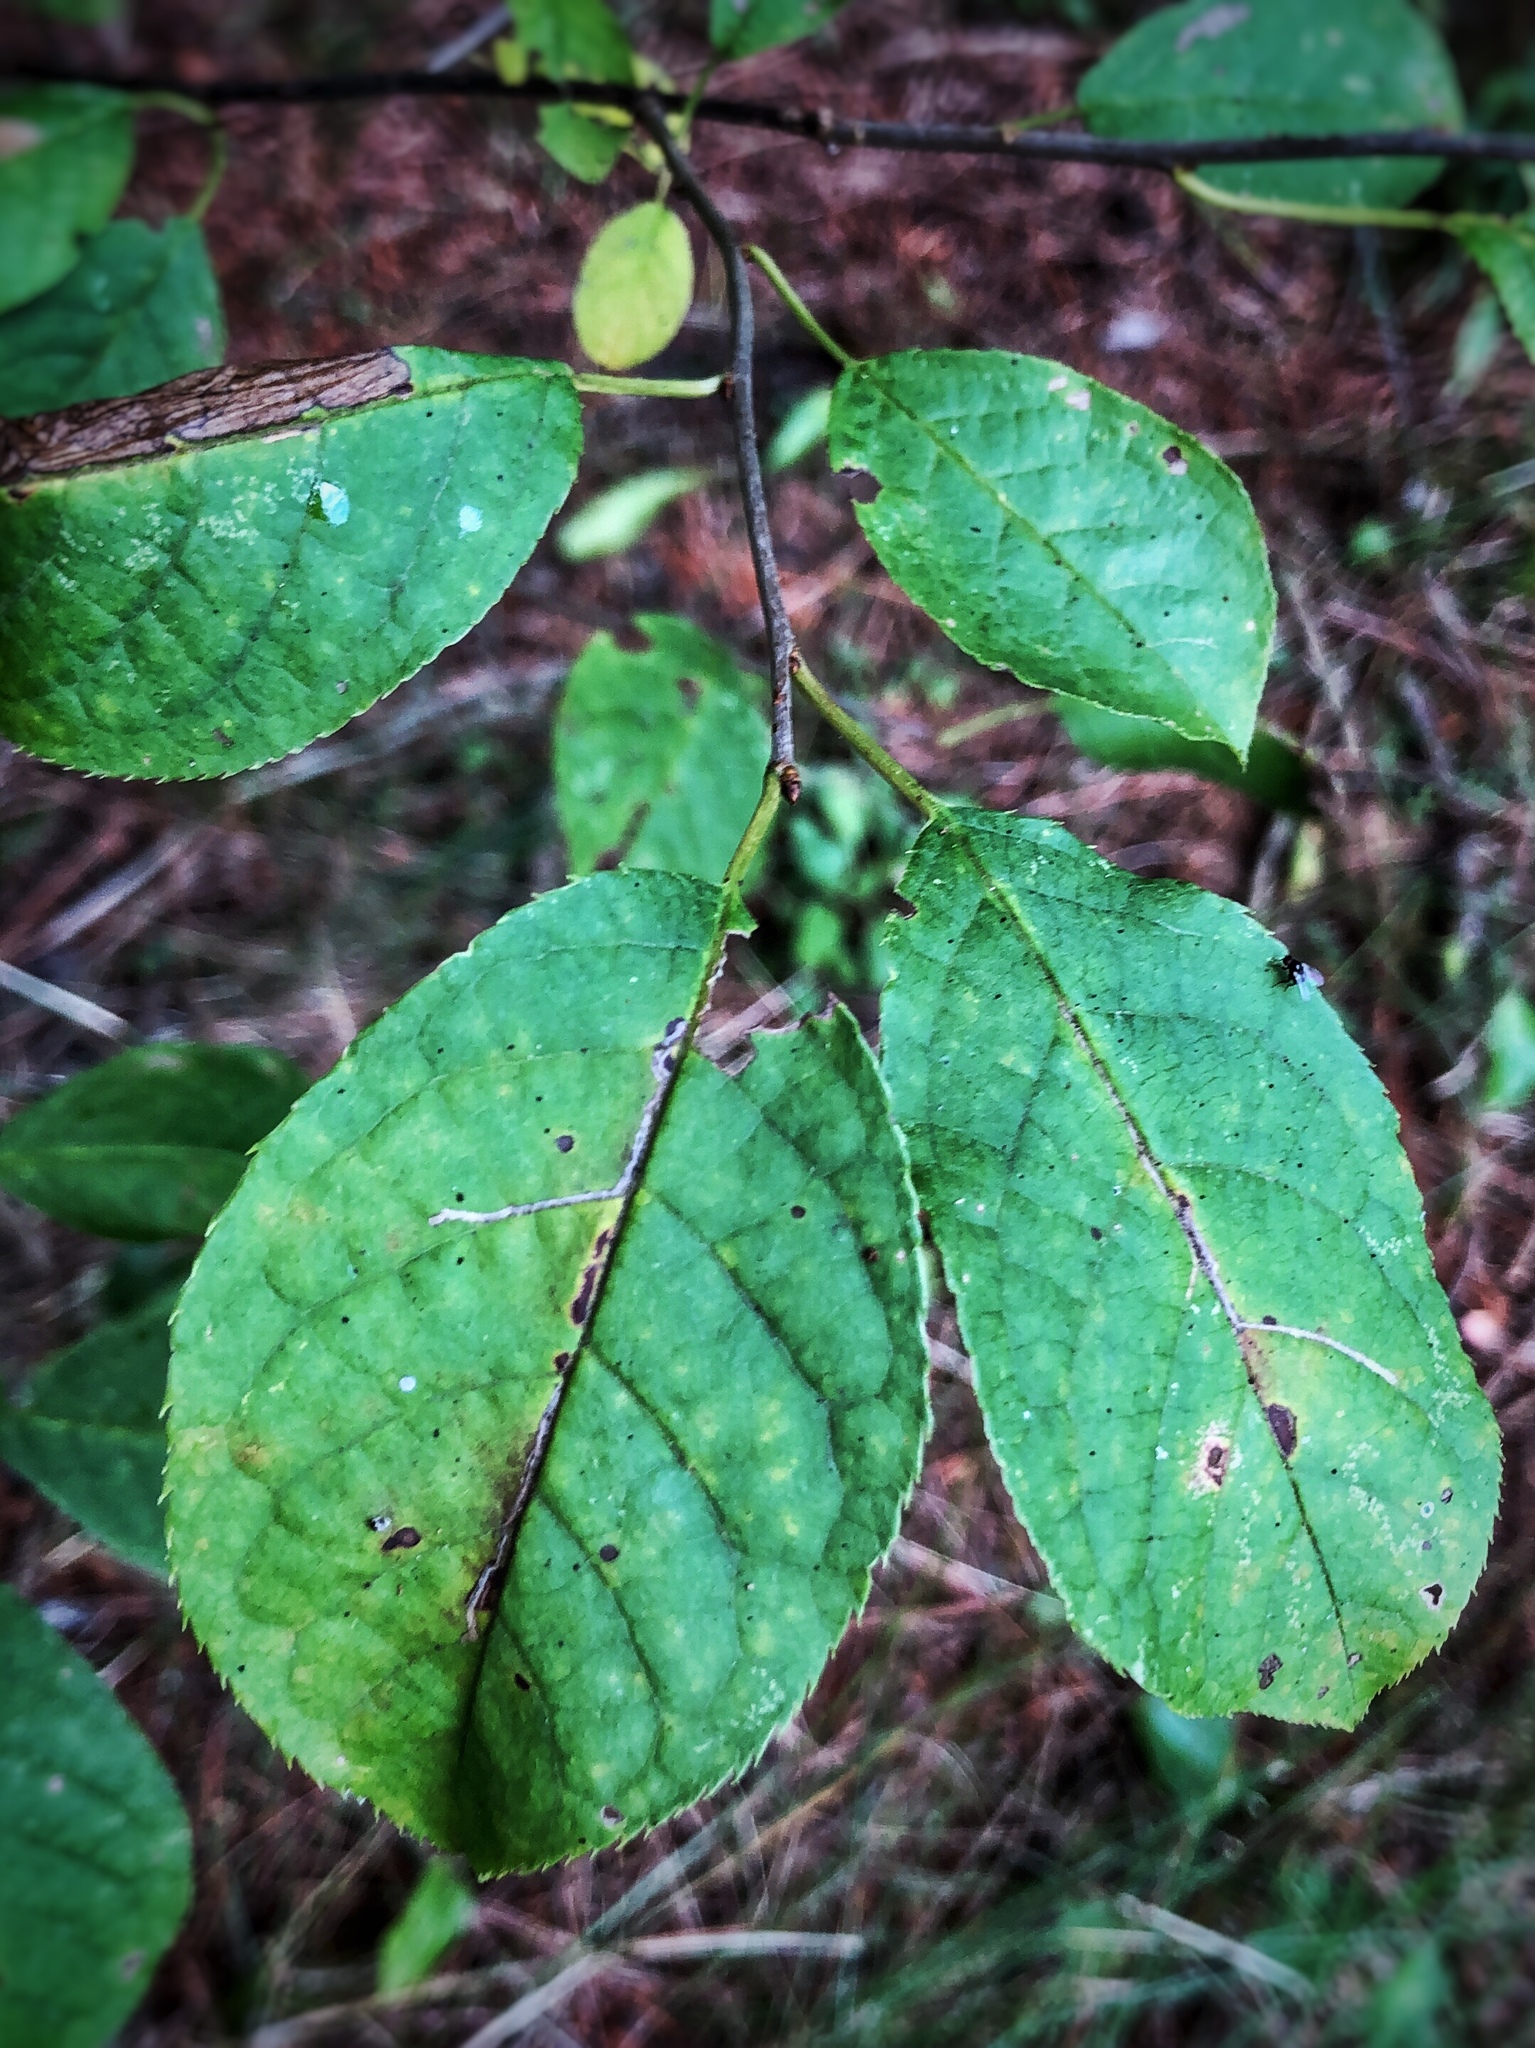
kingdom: Plantae
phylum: Tracheophyta
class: Magnoliopsida
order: Rosales
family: Rosaceae
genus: Prunus
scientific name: Prunus virginiana
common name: Chokecherry
